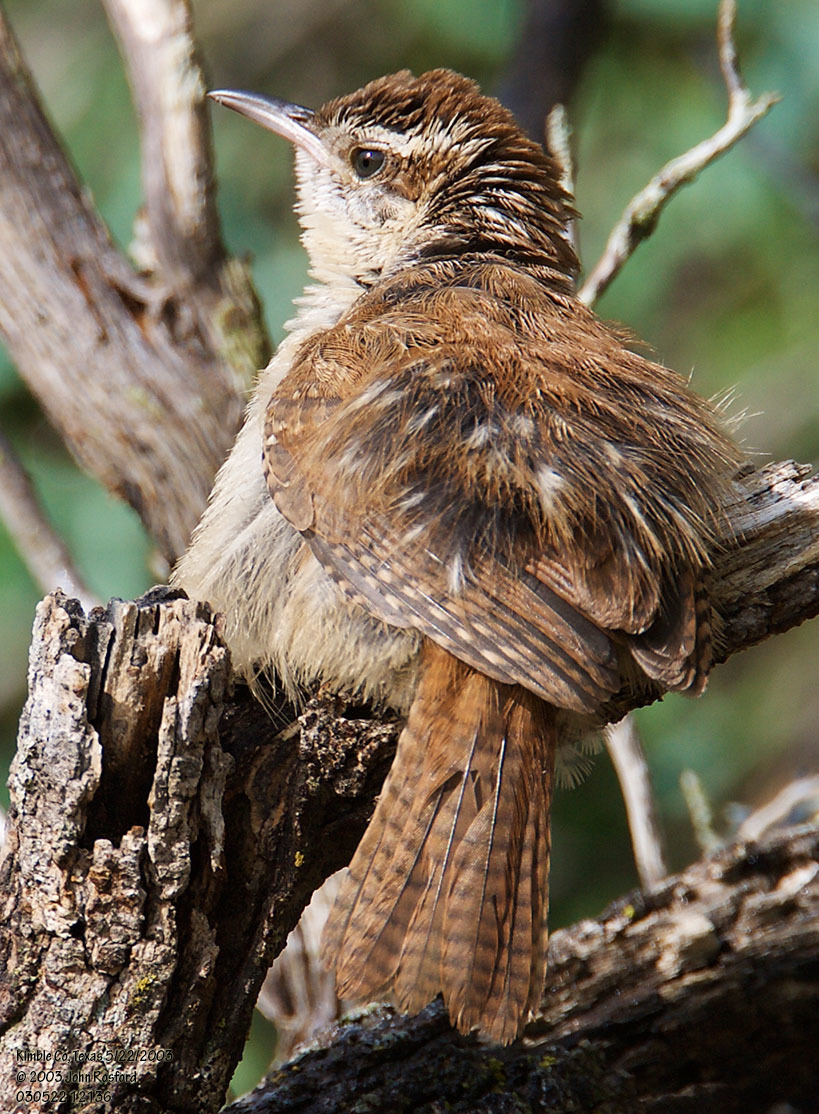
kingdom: Animalia
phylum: Chordata
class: Aves
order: Passeriformes
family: Troglodytidae
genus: Thryothorus
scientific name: Thryothorus ludovicianus
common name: Carolina wren
